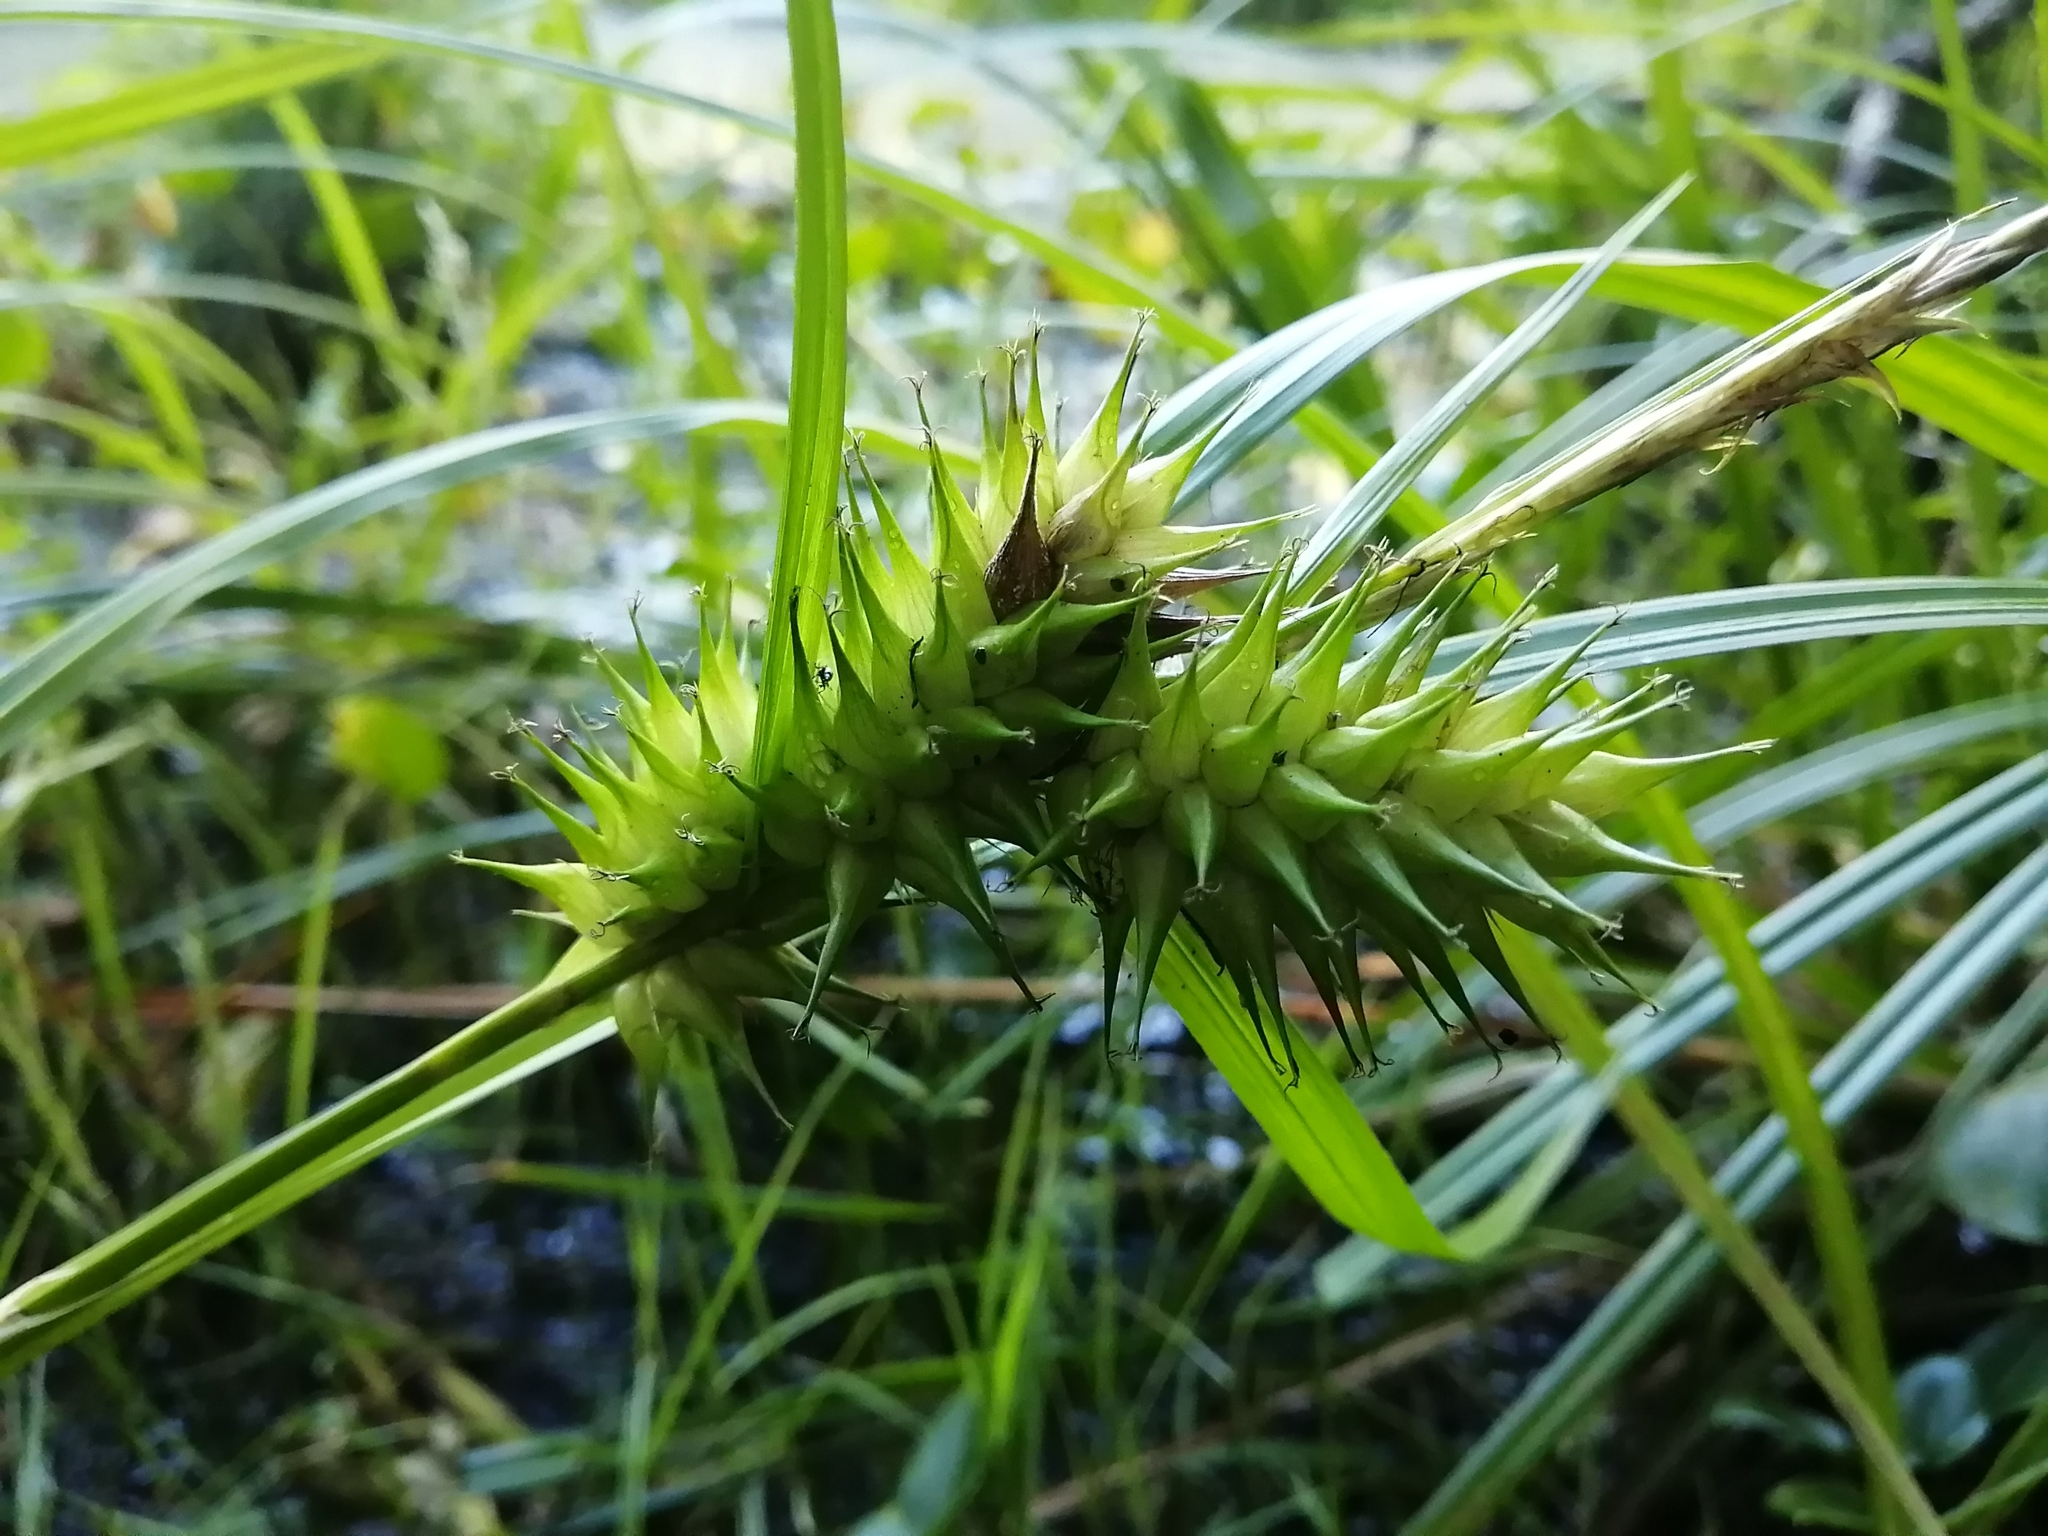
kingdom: Plantae
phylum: Tracheophyta
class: Liliopsida
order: Poales
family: Cyperaceae
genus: Carex
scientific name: Carex lupulina
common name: Hop sedge
